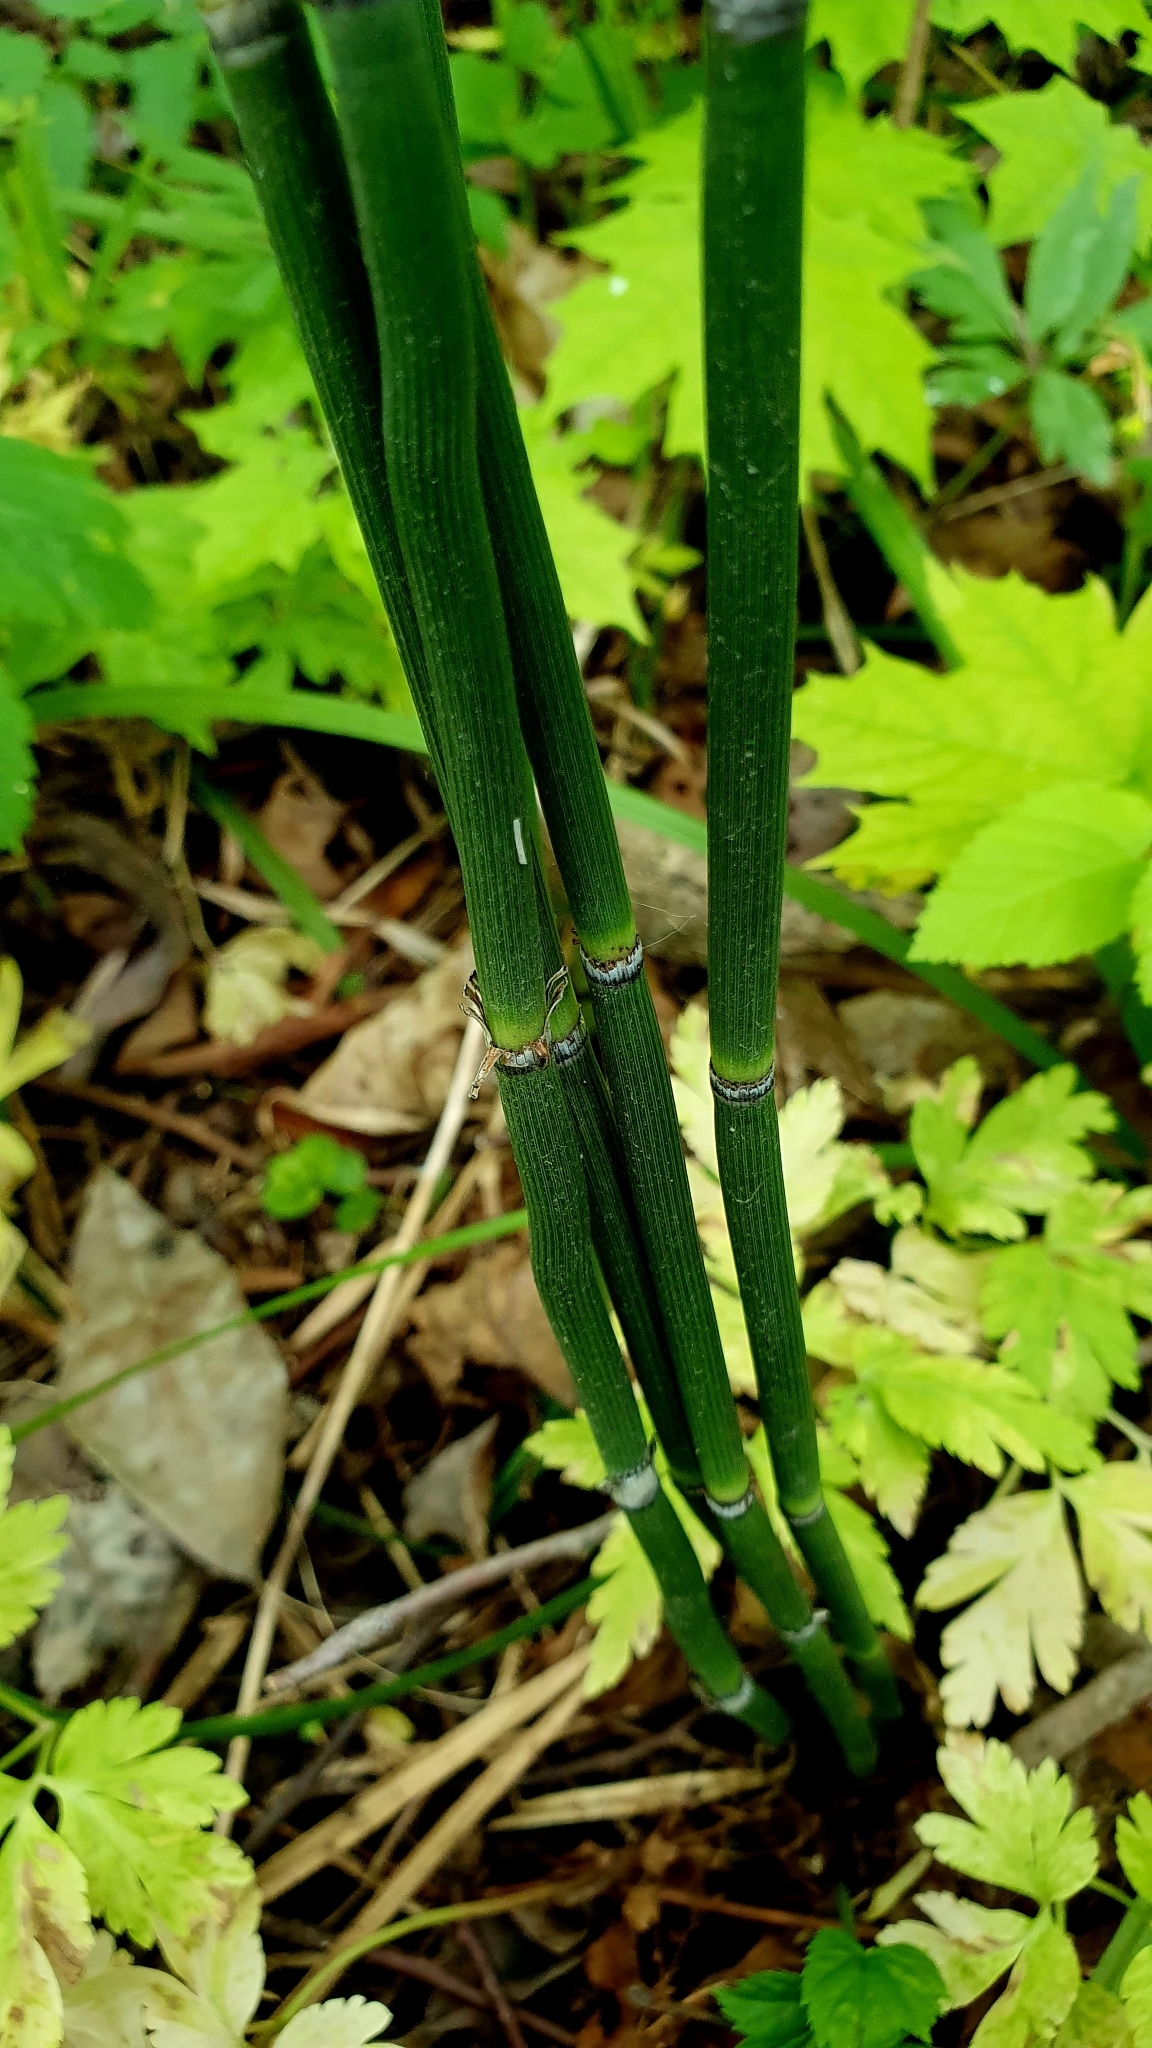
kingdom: Plantae
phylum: Tracheophyta
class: Polypodiopsida
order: Equisetales
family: Equisetaceae
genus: Equisetum
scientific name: Equisetum hyemale
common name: Rough horsetail
